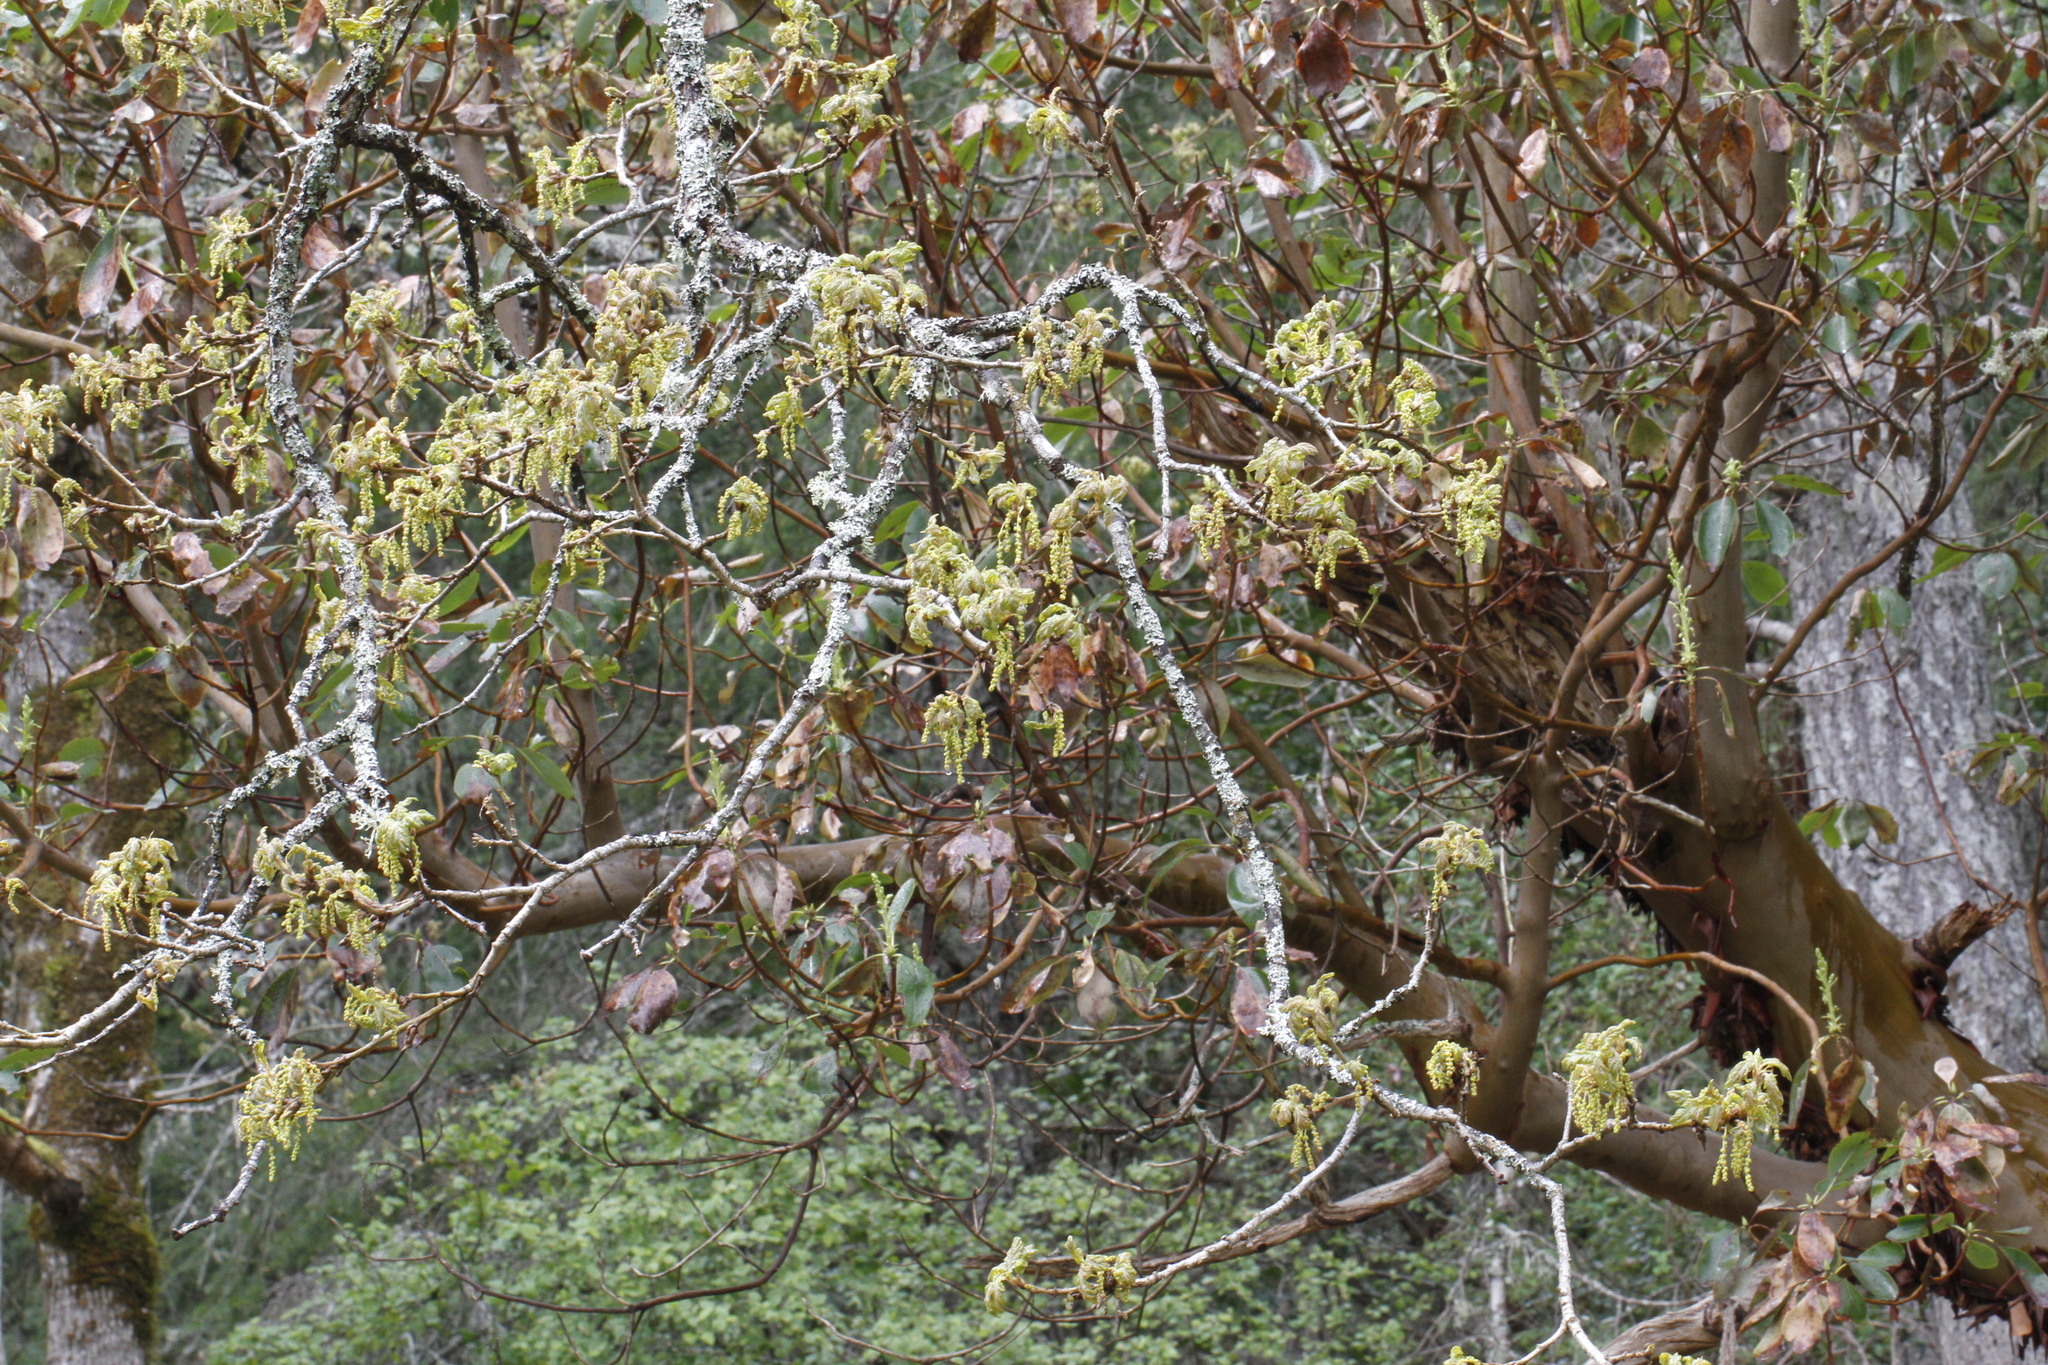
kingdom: Plantae
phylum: Tracheophyta
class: Magnoliopsida
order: Fagales
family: Fagaceae
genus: Quercus
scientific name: Quercus garryana
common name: Garry oak
